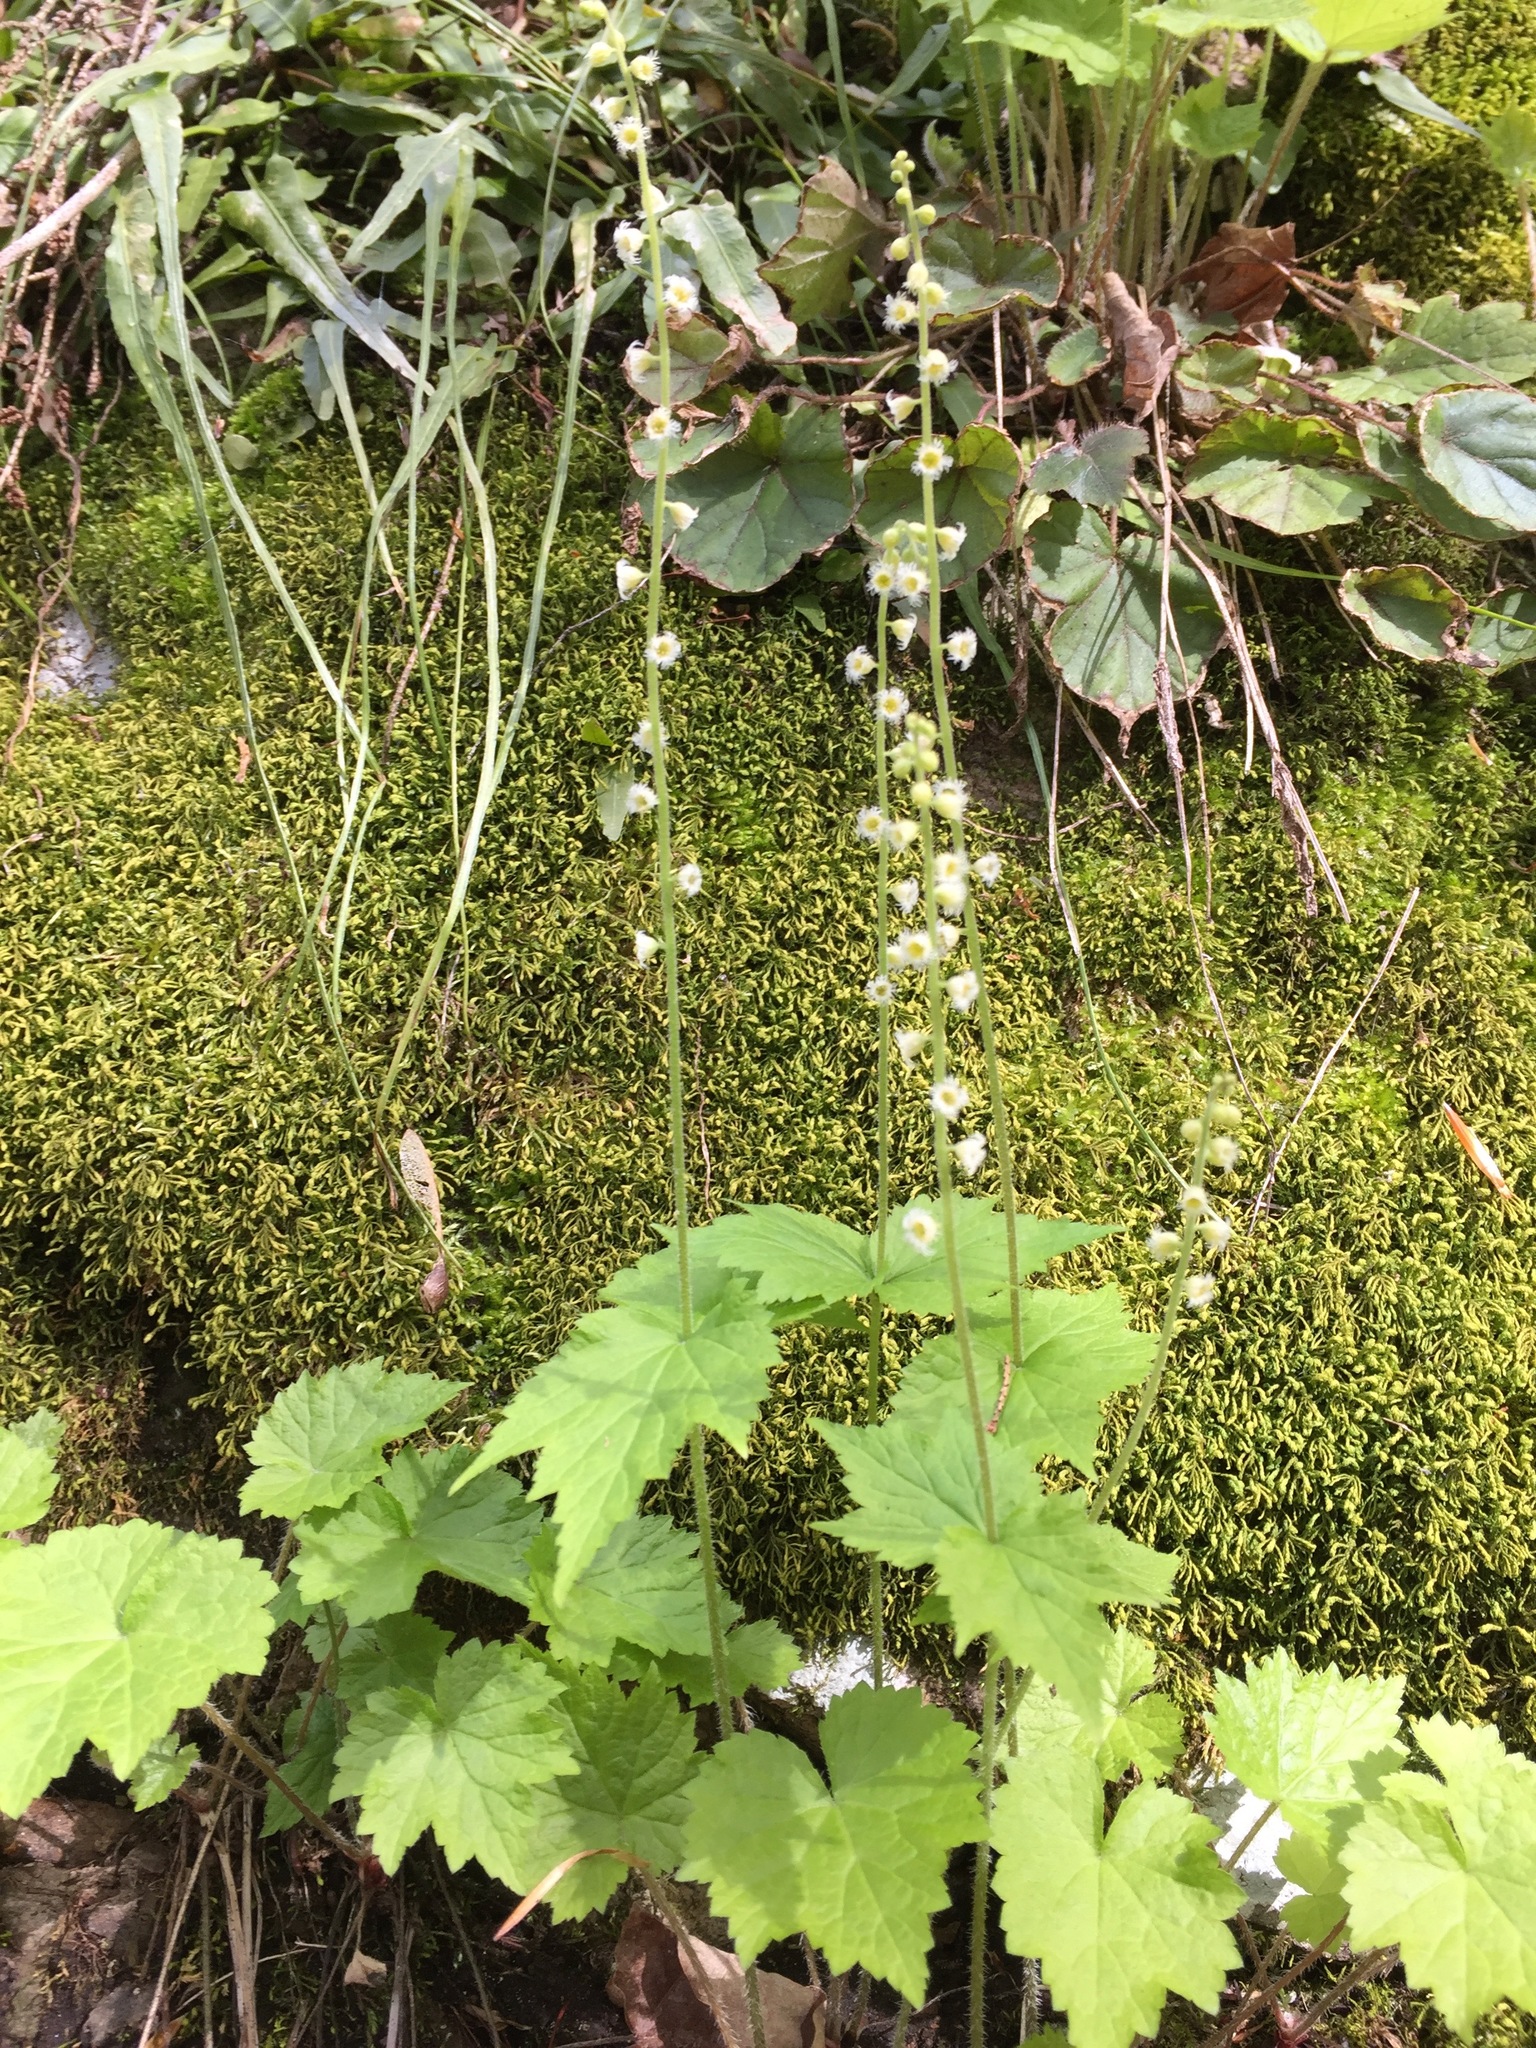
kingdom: Plantae
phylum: Tracheophyta
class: Magnoliopsida
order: Saxifragales
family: Saxifragaceae
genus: Mitella
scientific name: Mitella diphylla
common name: Coolwort
